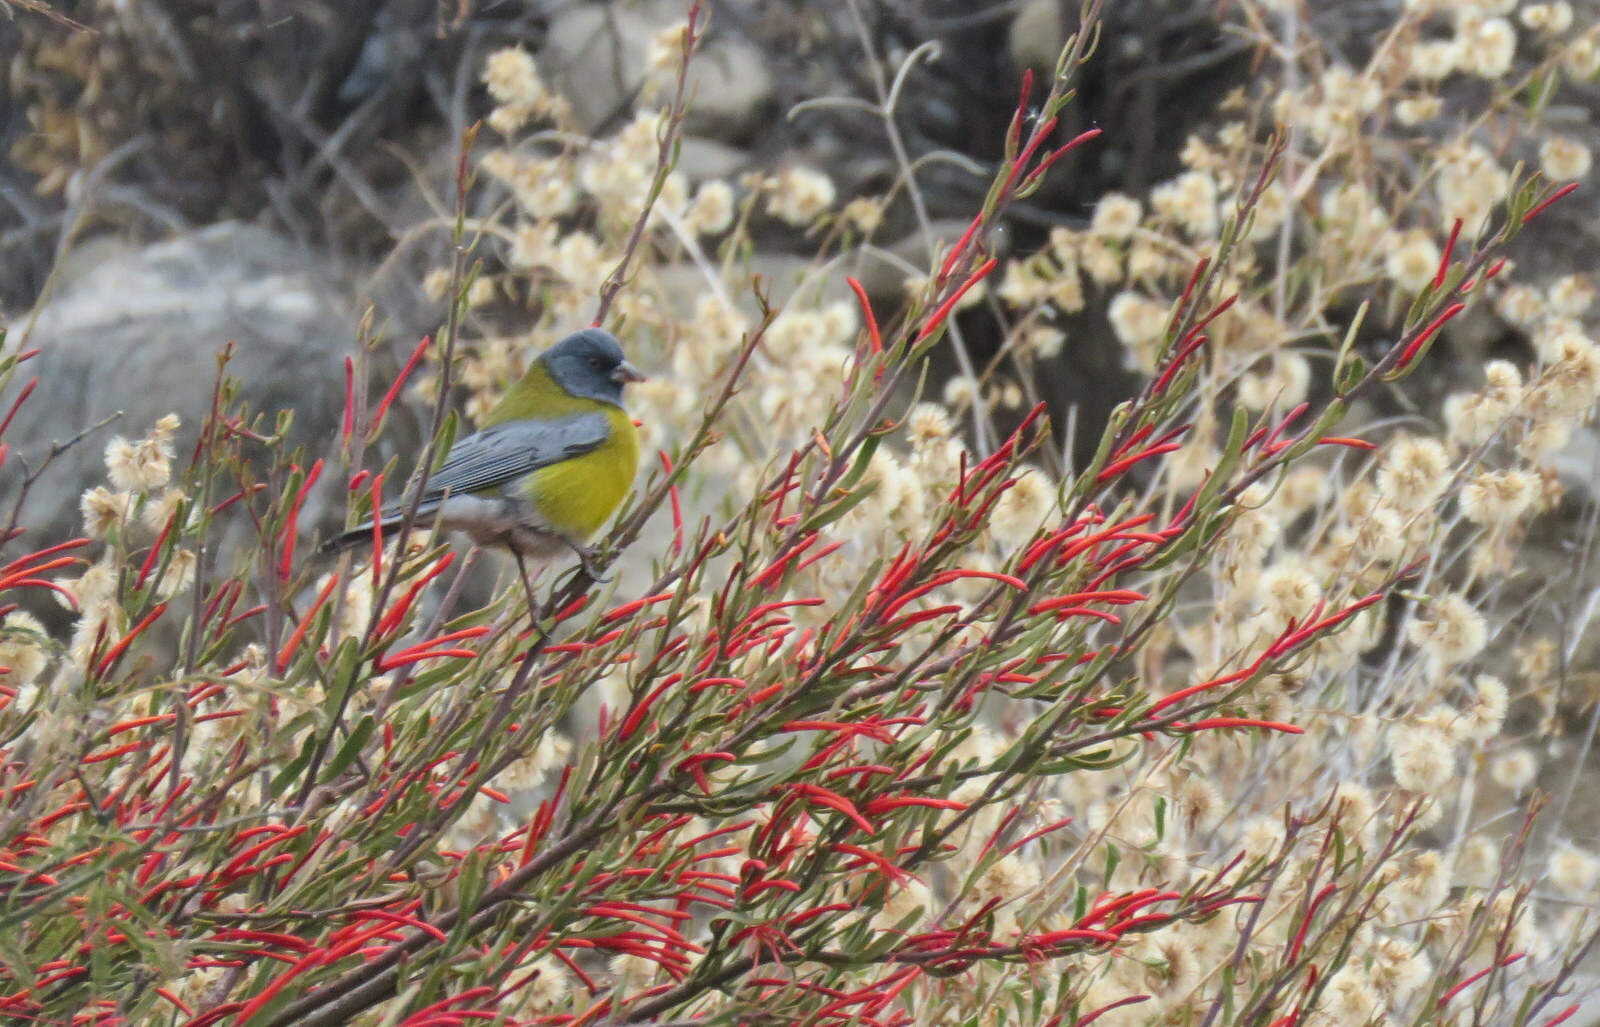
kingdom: Animalia
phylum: Chordata
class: Aves
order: Passeriformes
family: Thraupidae
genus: Phrygilus
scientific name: Phrygilus gayi
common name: Grey-hooded sierra finch
